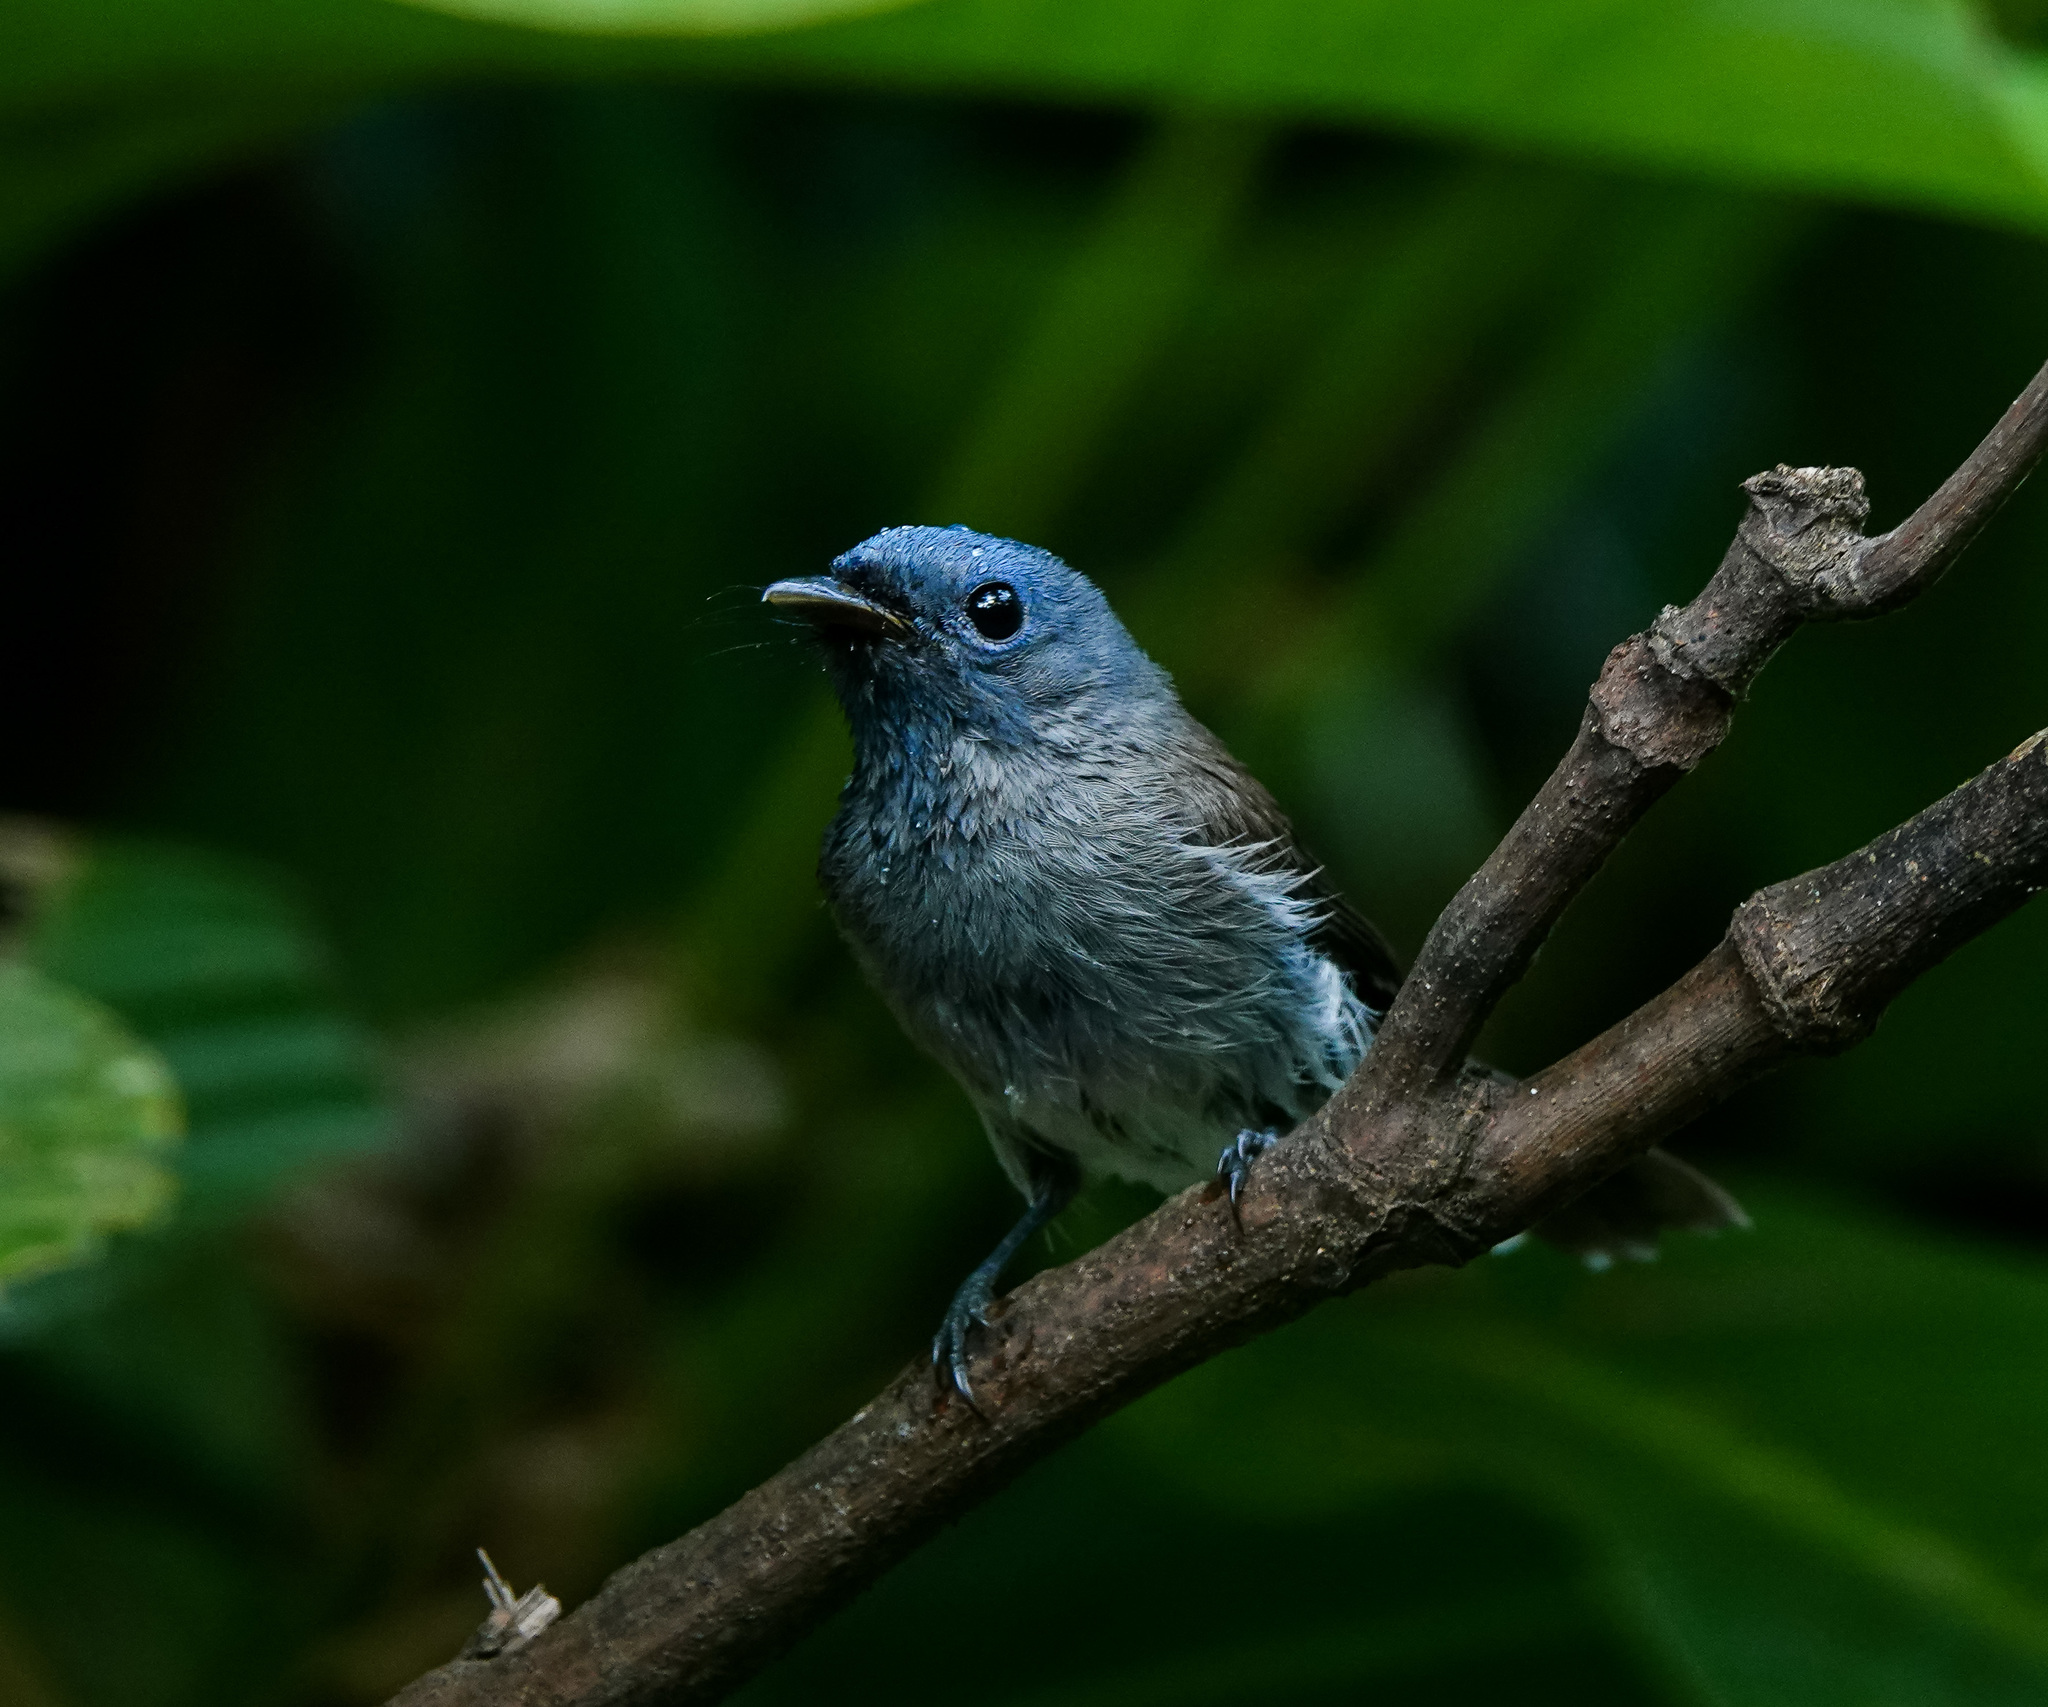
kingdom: Animalia
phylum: Chordata
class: Aves
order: Passeriformes
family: Monarchidae
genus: Hypothymis
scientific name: Hypothymis azurea
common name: Black-naped monarch
